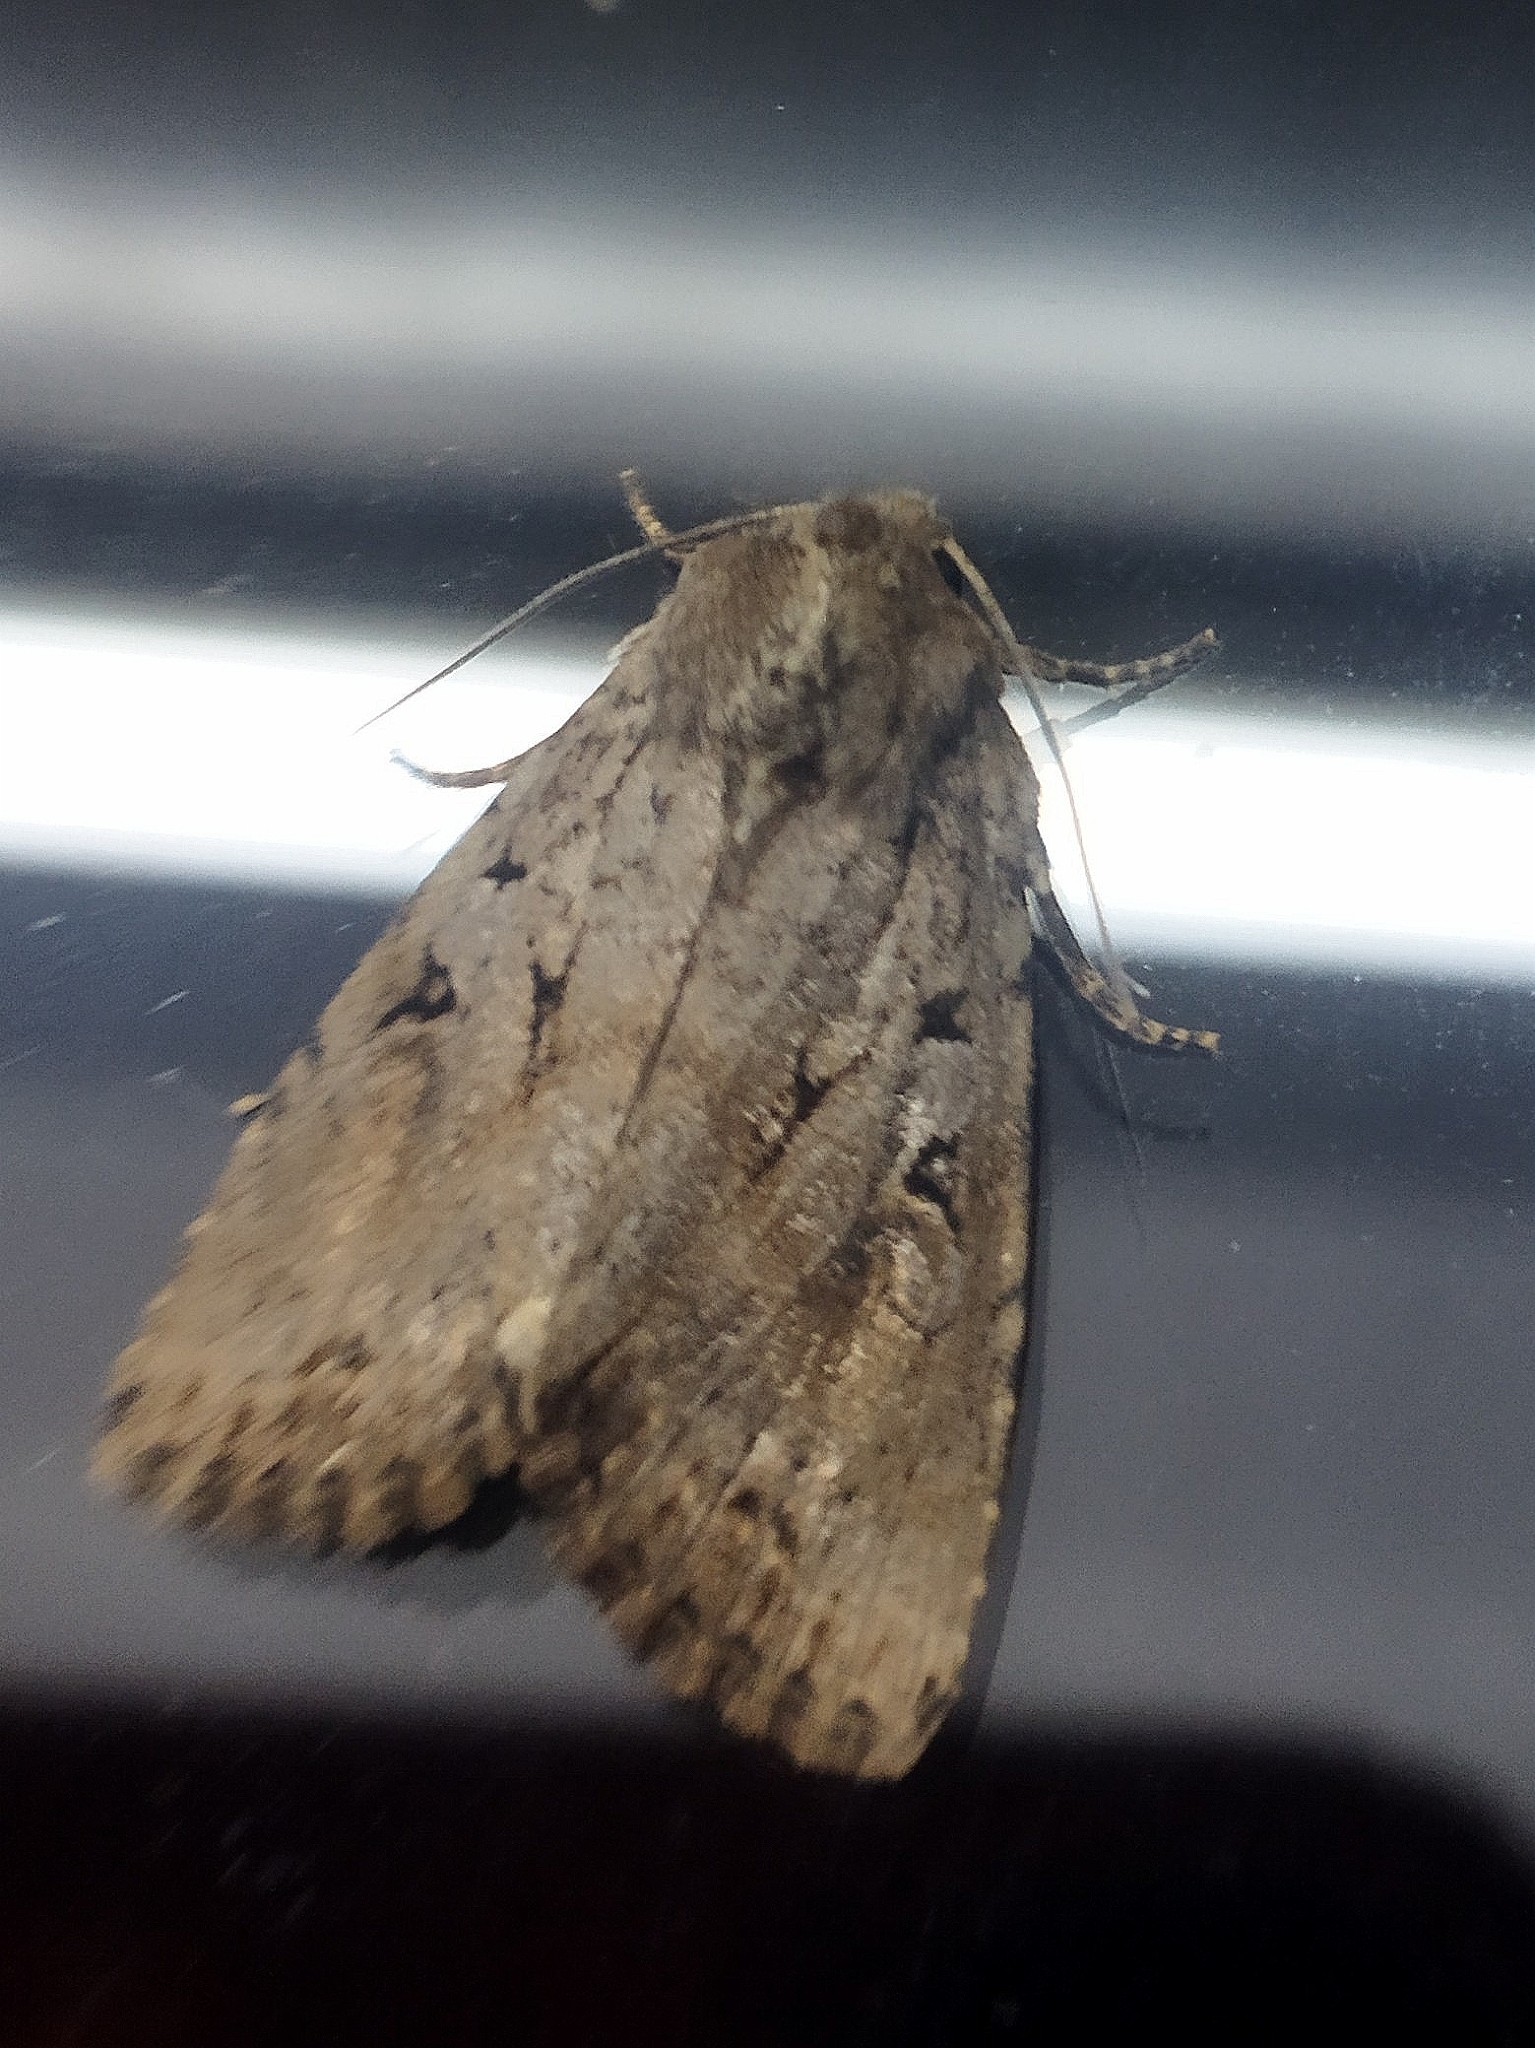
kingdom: Animalia
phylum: Arthropoda
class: Insecta
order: Lepidoptera
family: Noctuidae
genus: Apterogenum
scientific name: Apterogenum ypsillon
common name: Dingy shears
